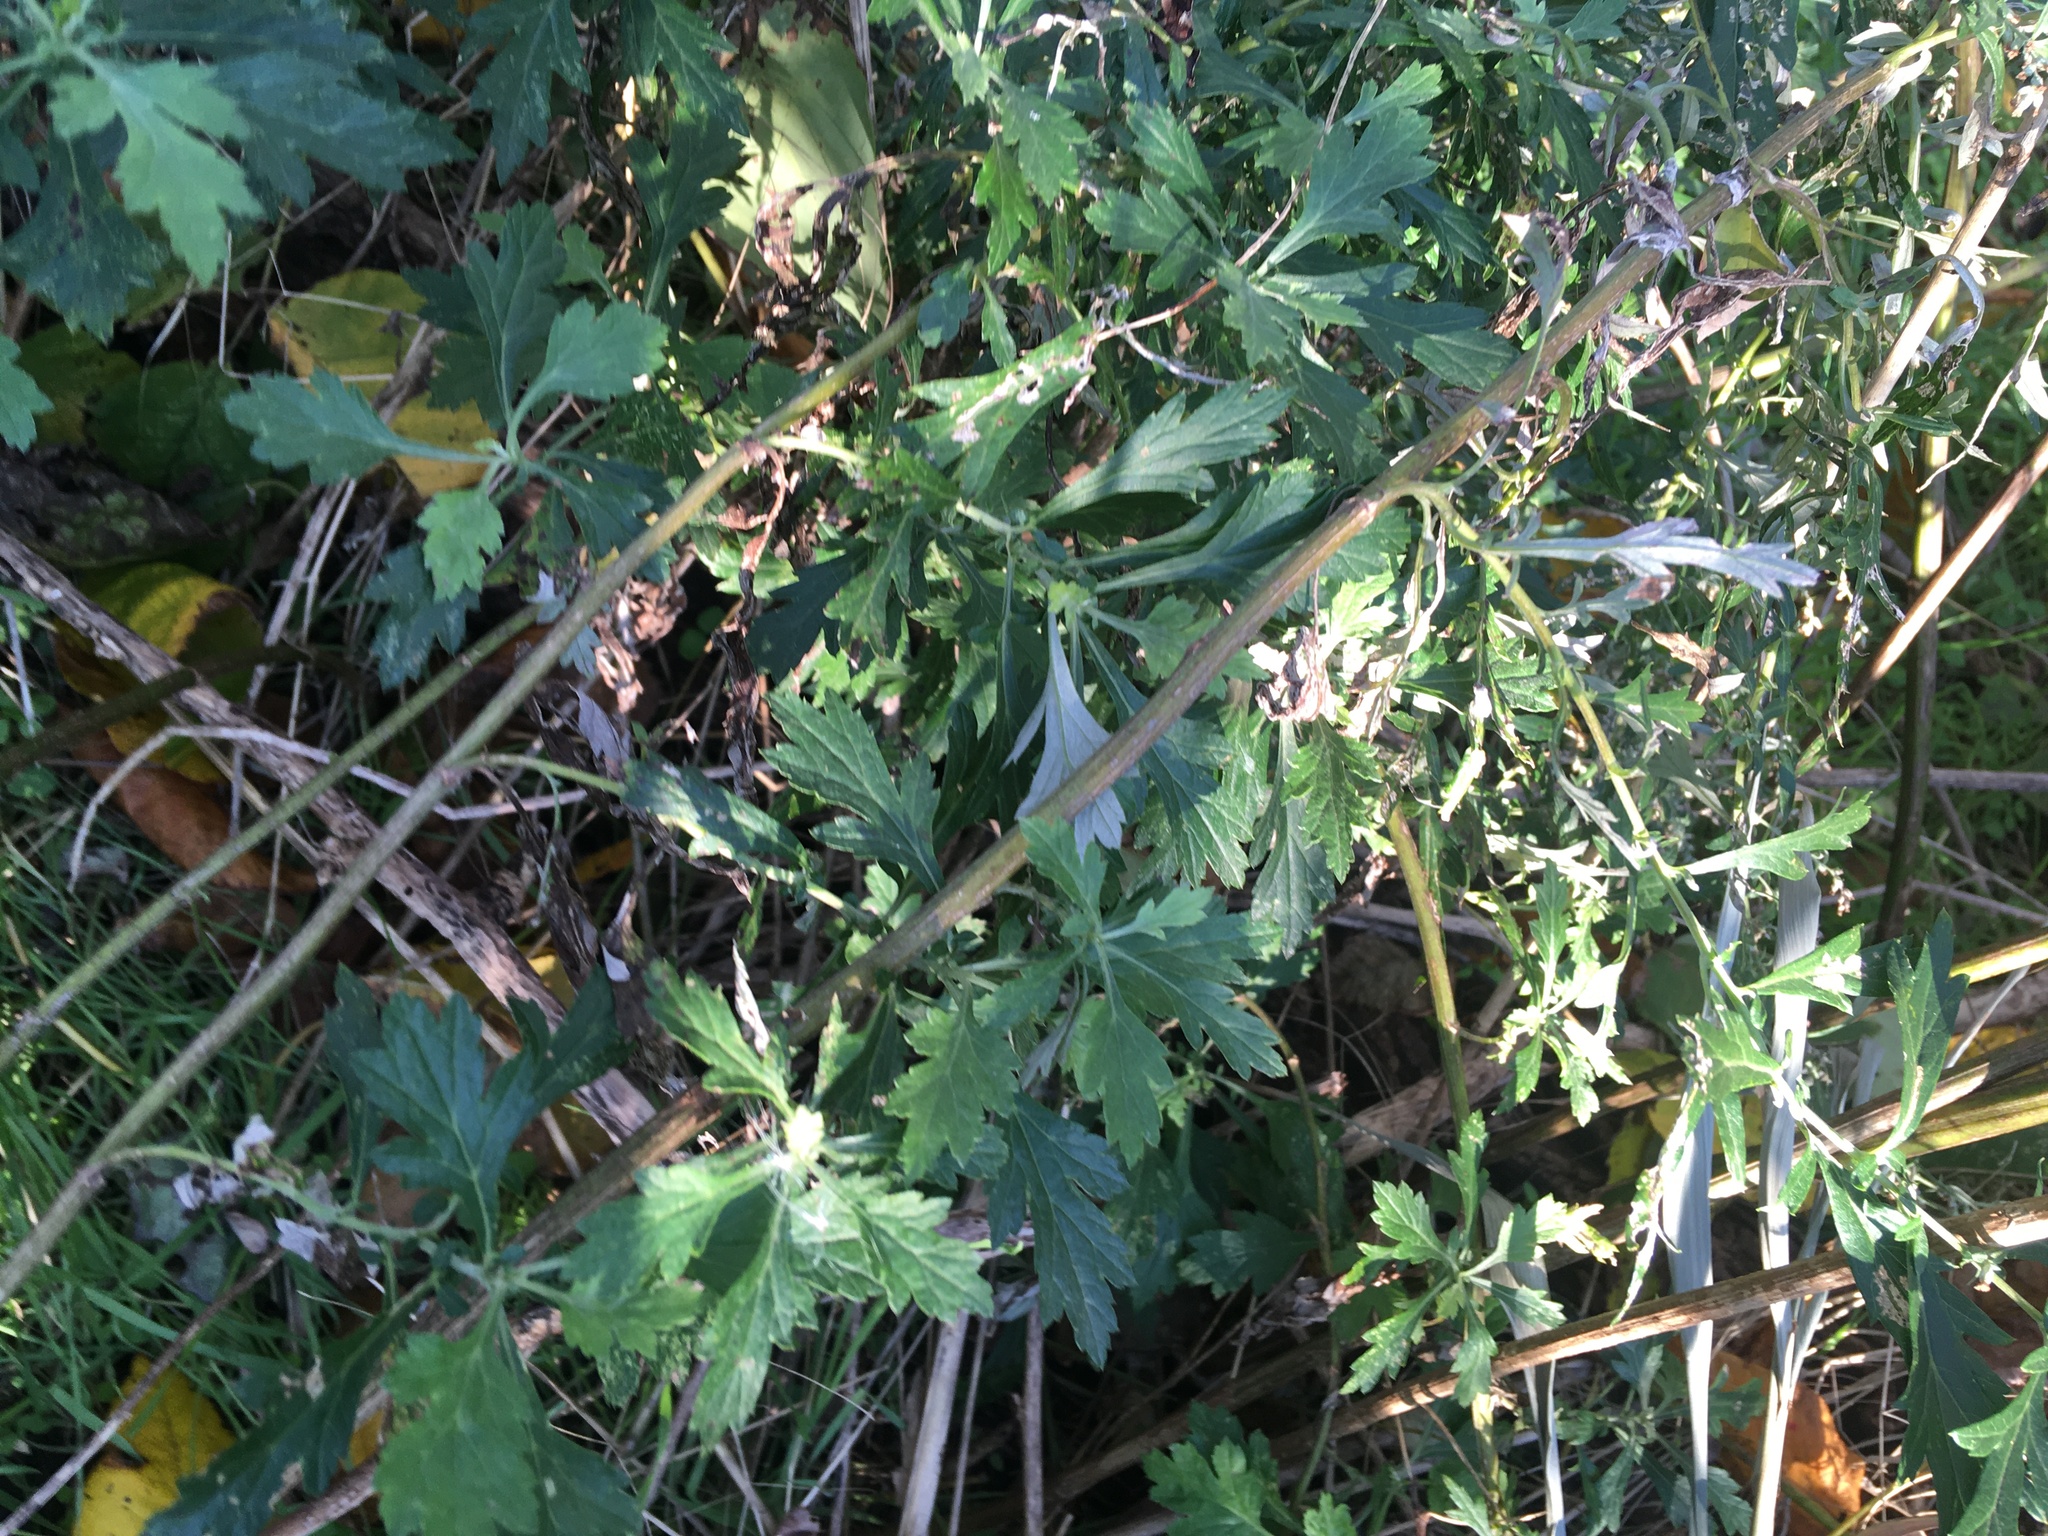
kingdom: Plantae
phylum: Tracheophyta
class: Magnoliopsida
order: Asterales
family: Asteraceae
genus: Artemisia
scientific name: Artemisia vulgaris
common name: Mugwort
